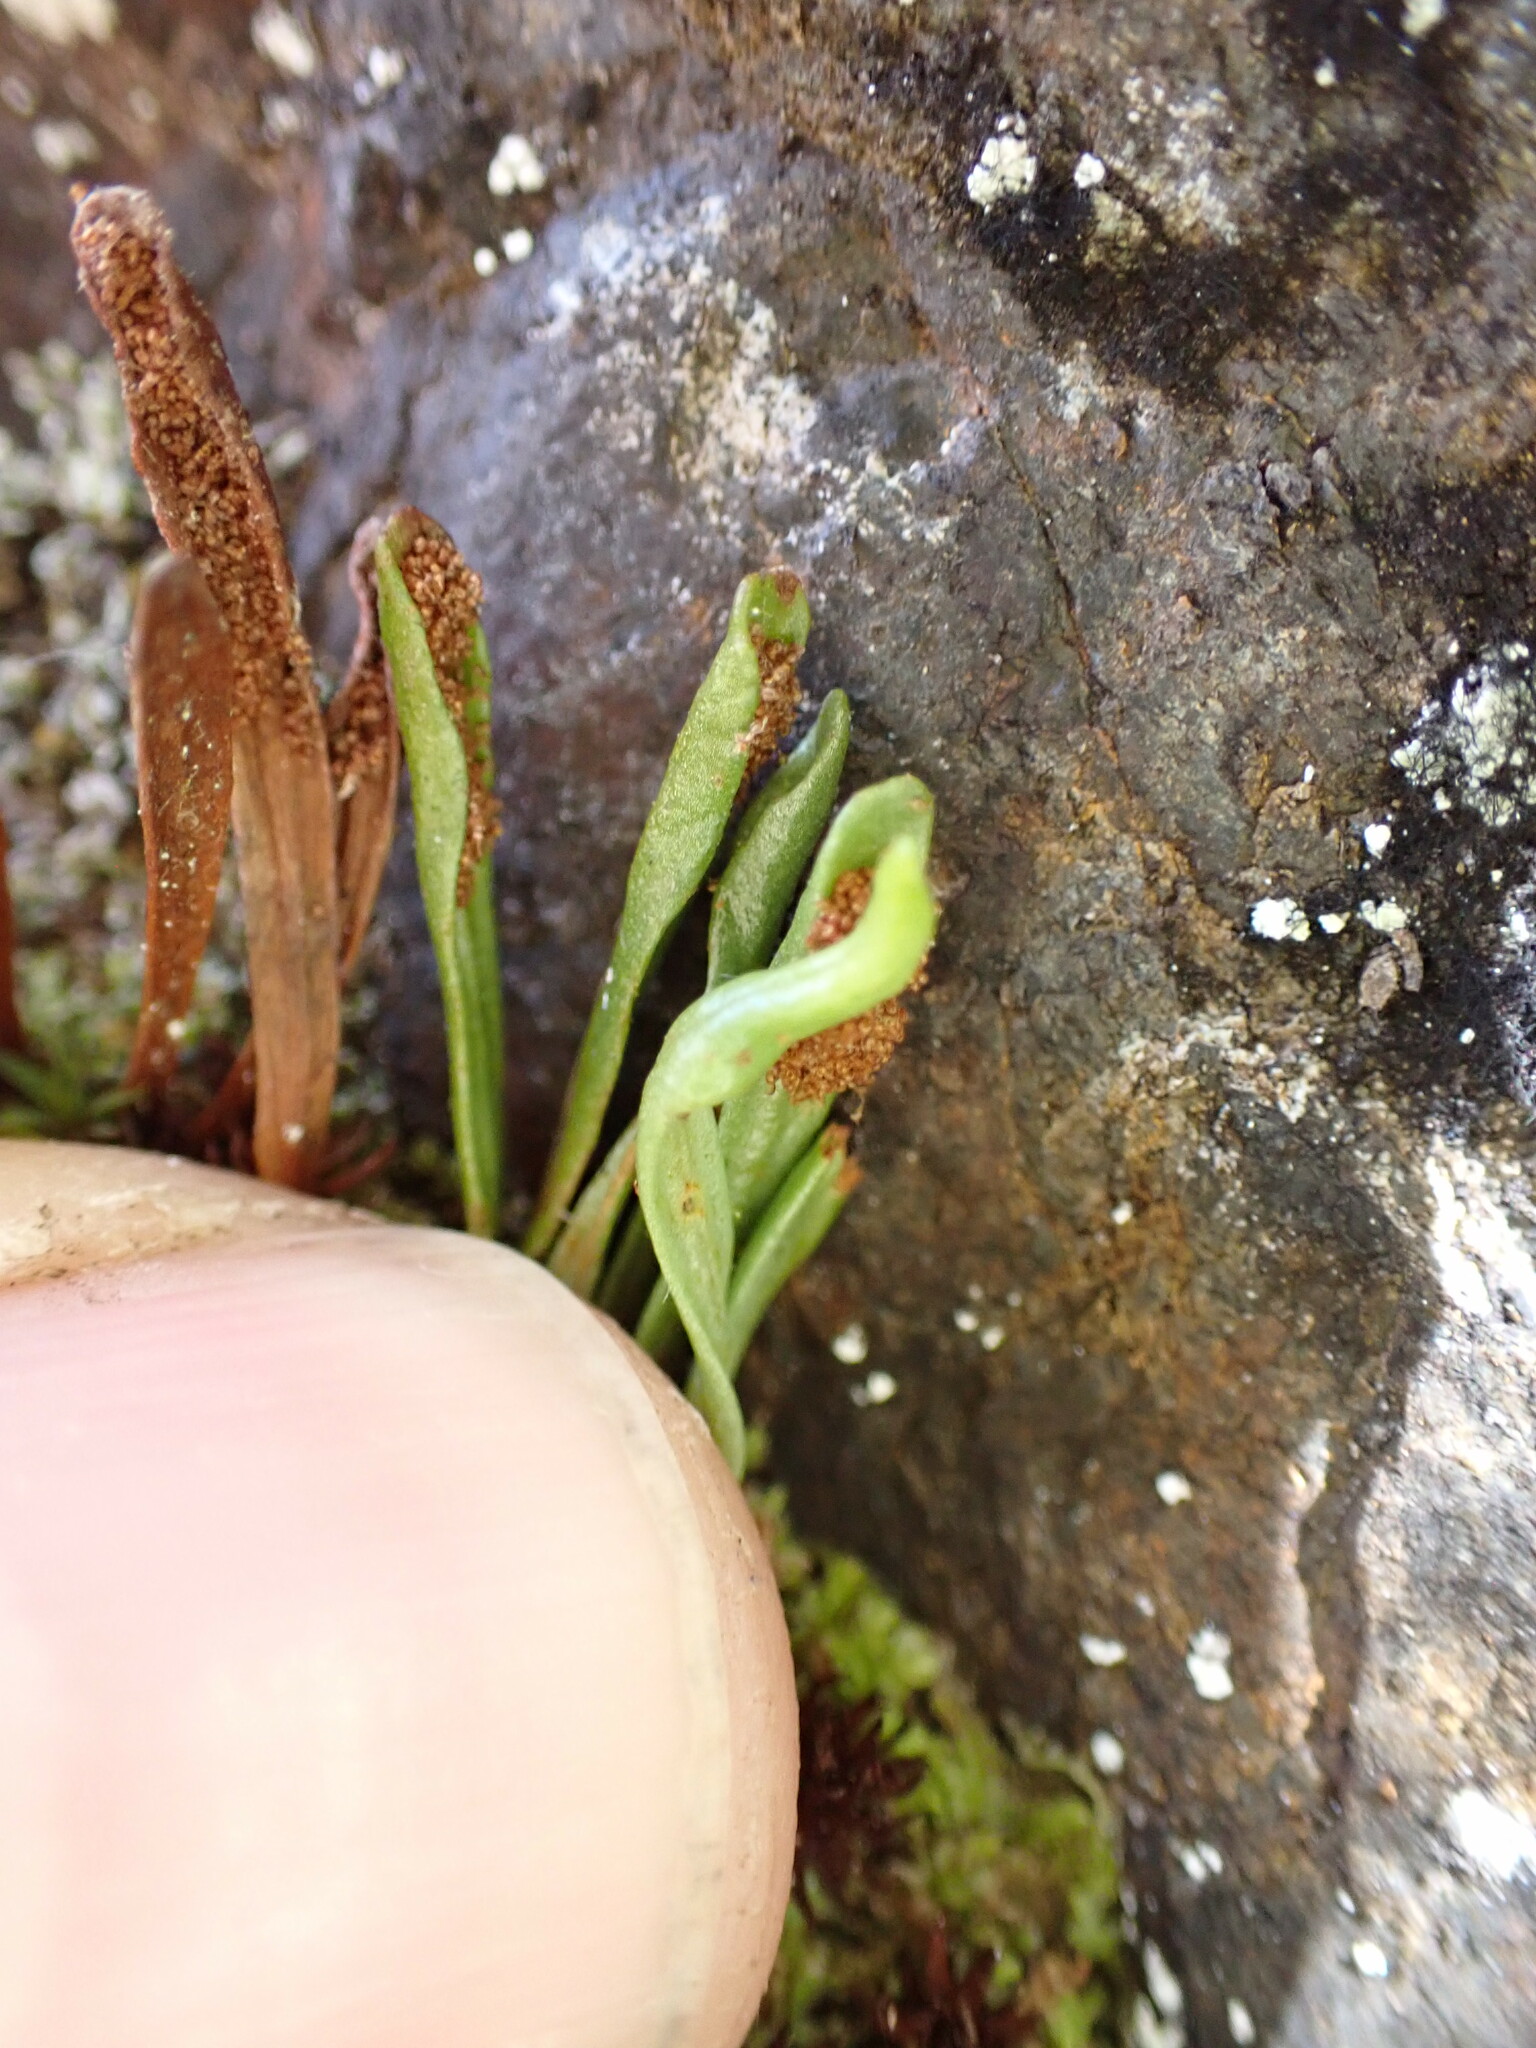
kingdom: Plantae
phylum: Tracheophyta
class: Polypodiopsida
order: Polypodiales
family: Polypodiaceae
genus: Notogrammitis
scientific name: Notogrammitis crassior
